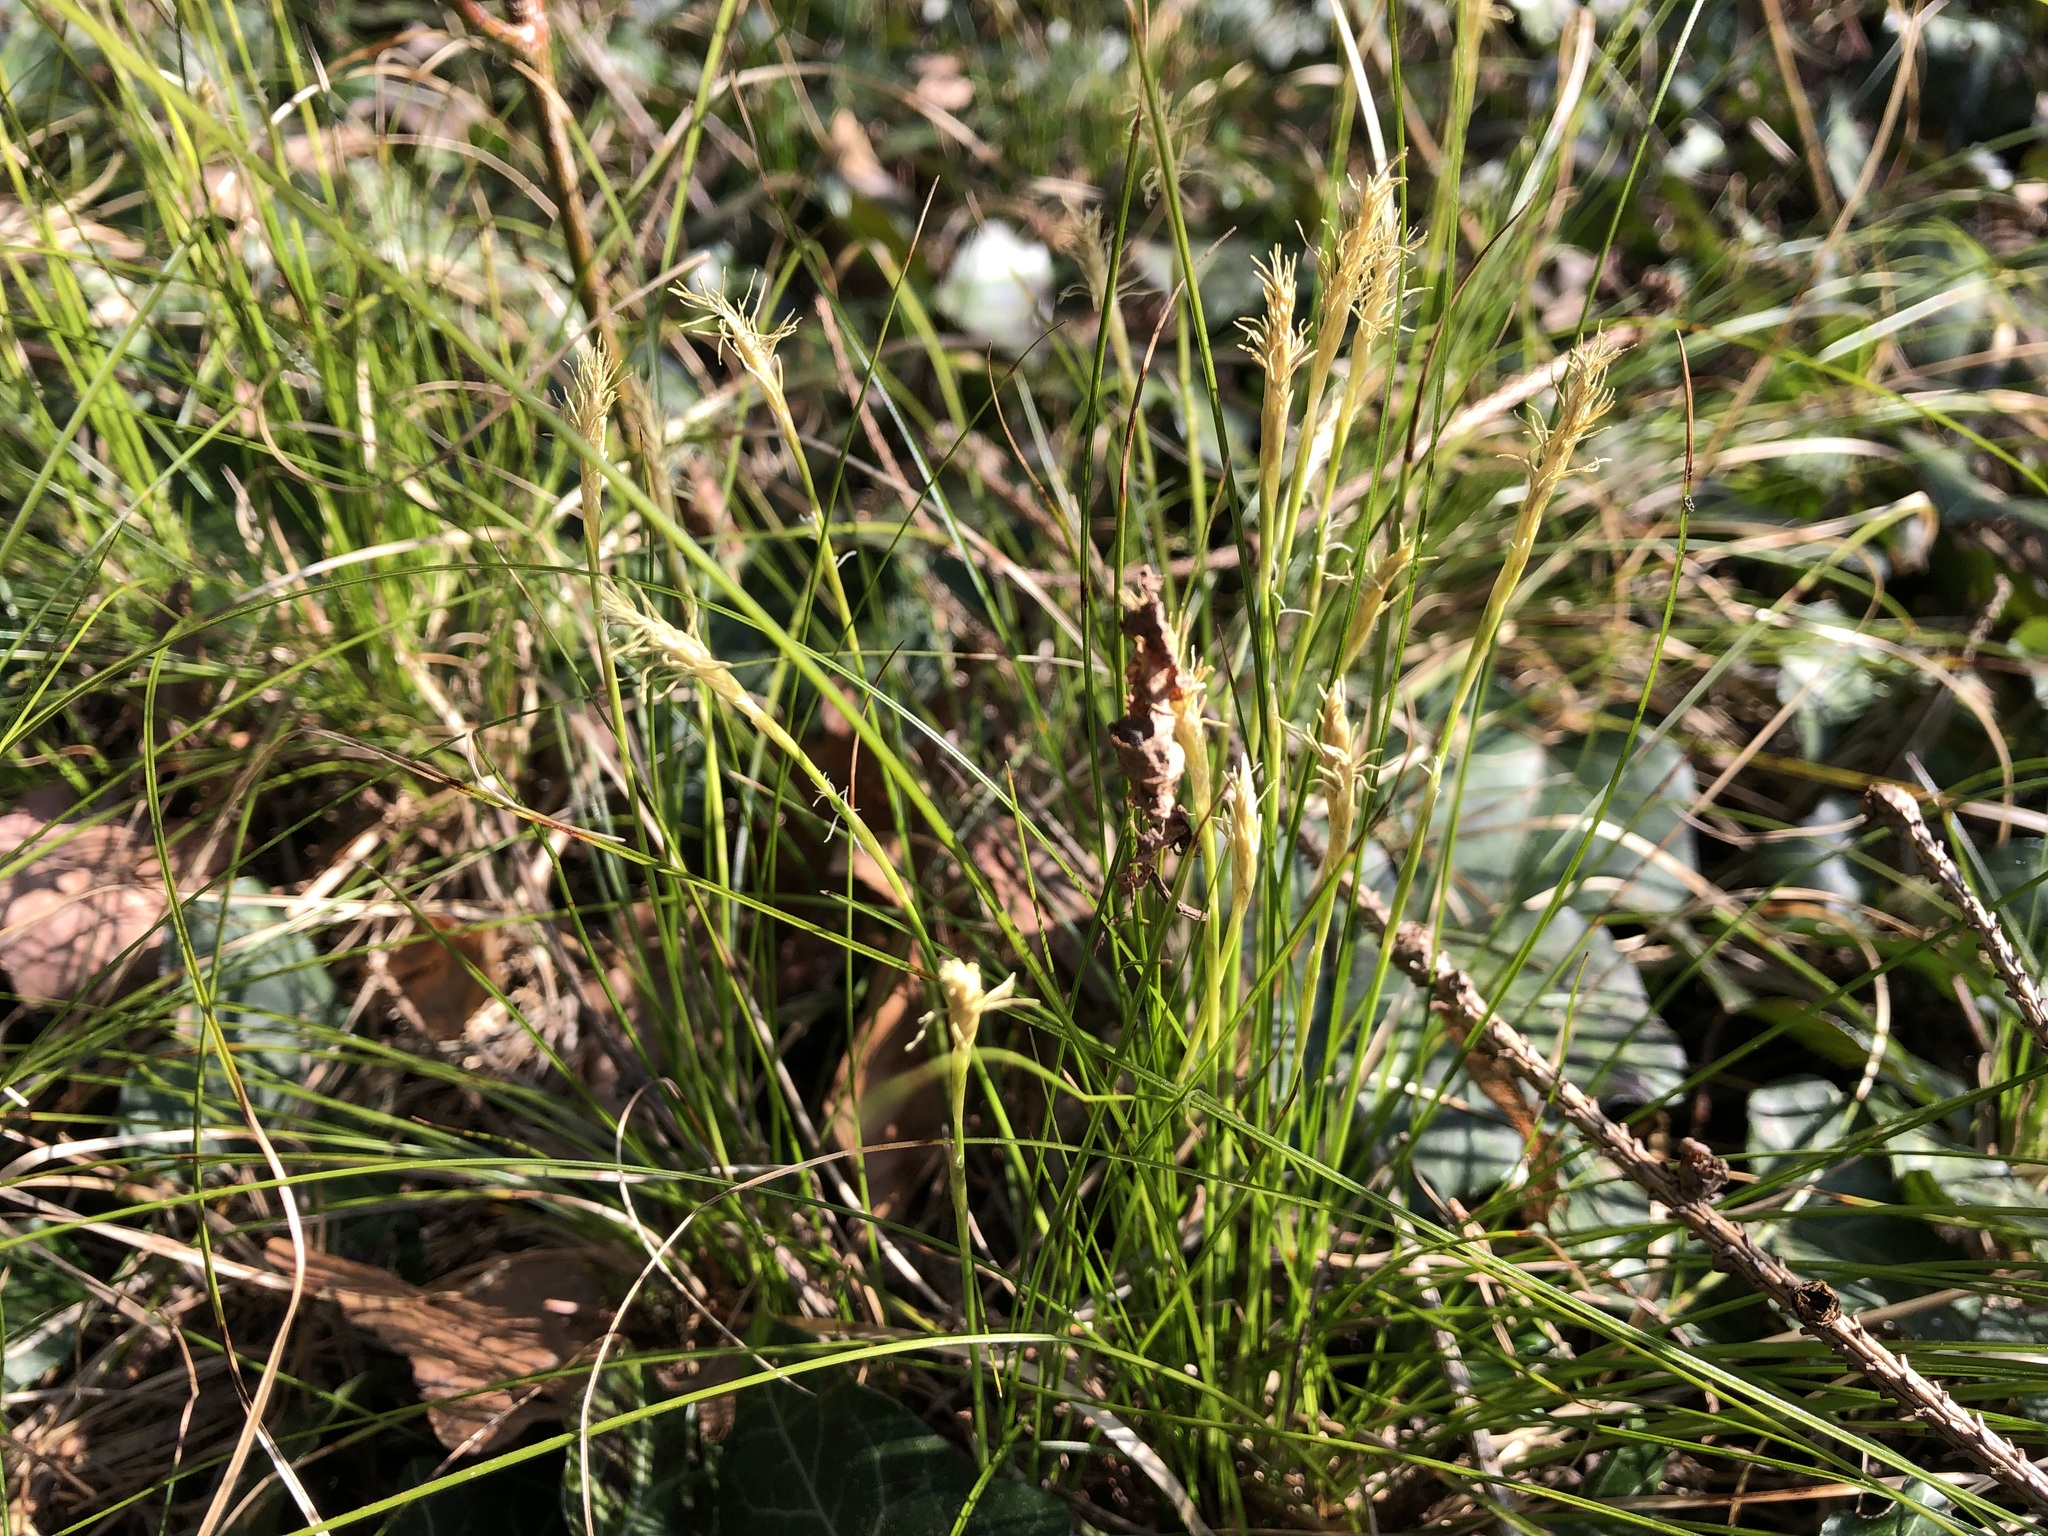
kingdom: Plantae
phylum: Tracheophyta
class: Liliopsida
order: Poales
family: Cyperaceae
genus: Carex
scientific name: Carex alba
